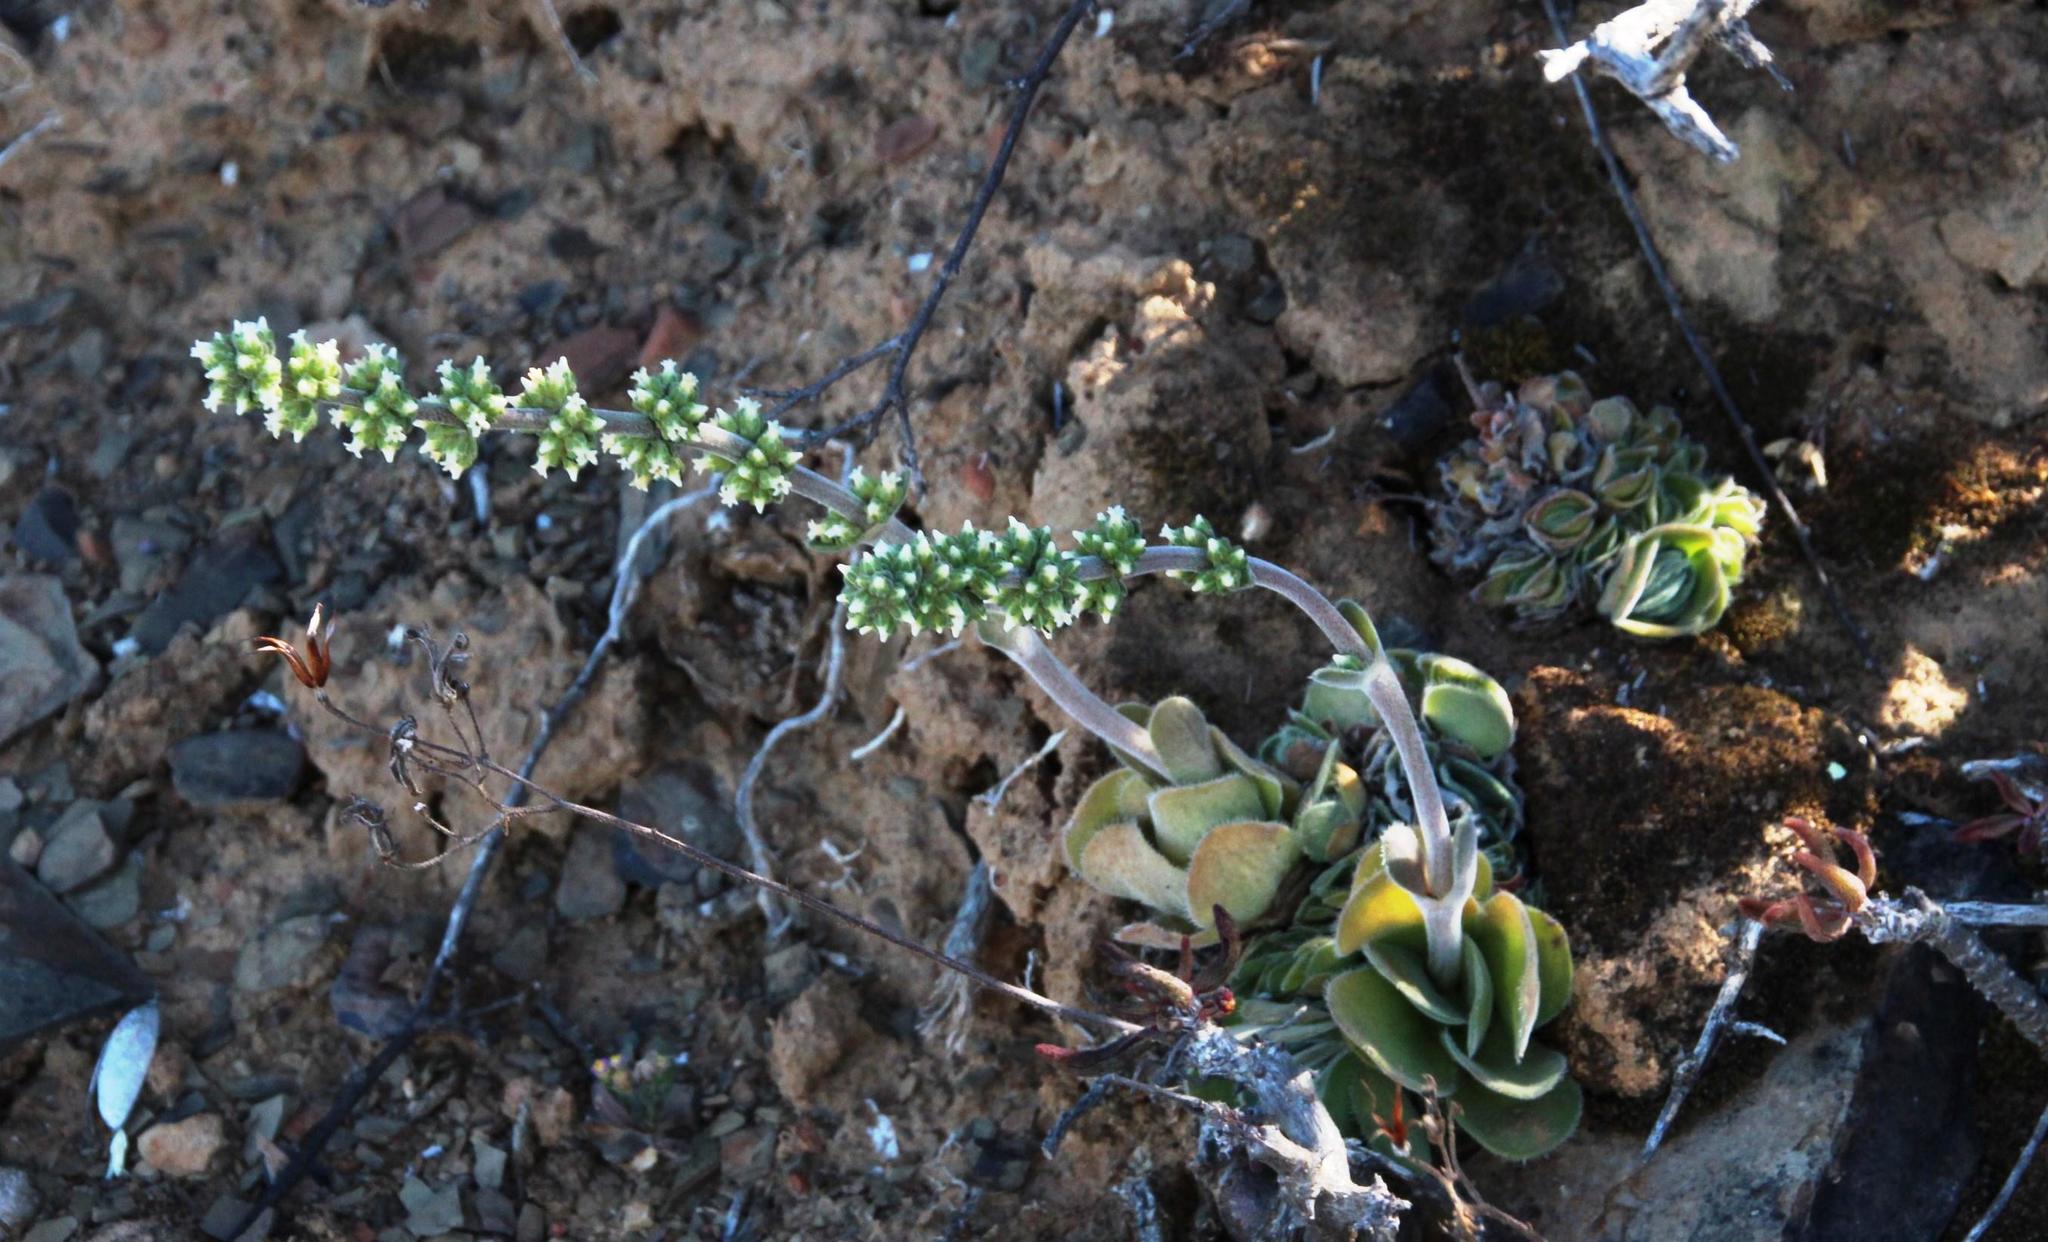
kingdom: Plantae
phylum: Tracheophyta
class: Magnoliopsida
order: Saxifragales
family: Crassulaceae
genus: Crassula
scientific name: Crassula tomentosa
